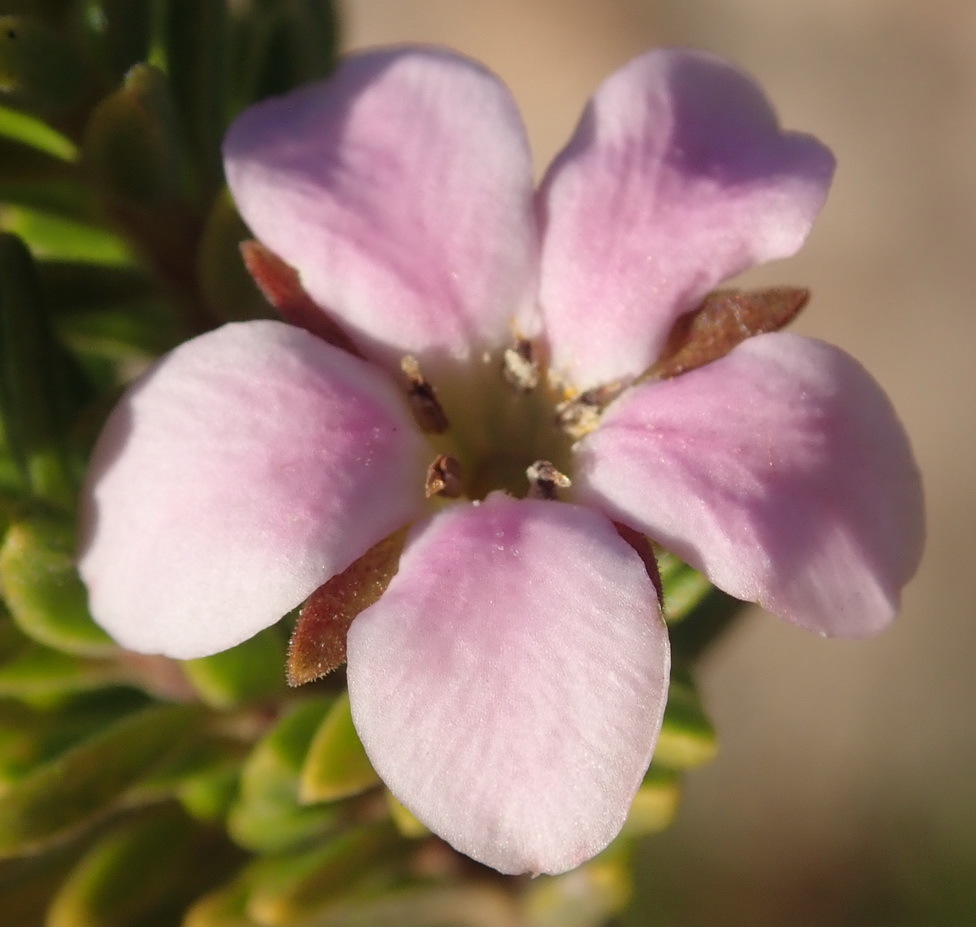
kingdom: Plantae
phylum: Tracheophyta
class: Magnoliopsida
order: Sapindales
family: Rutaceae
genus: Acmadenia
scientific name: Acmadenia rupicola
